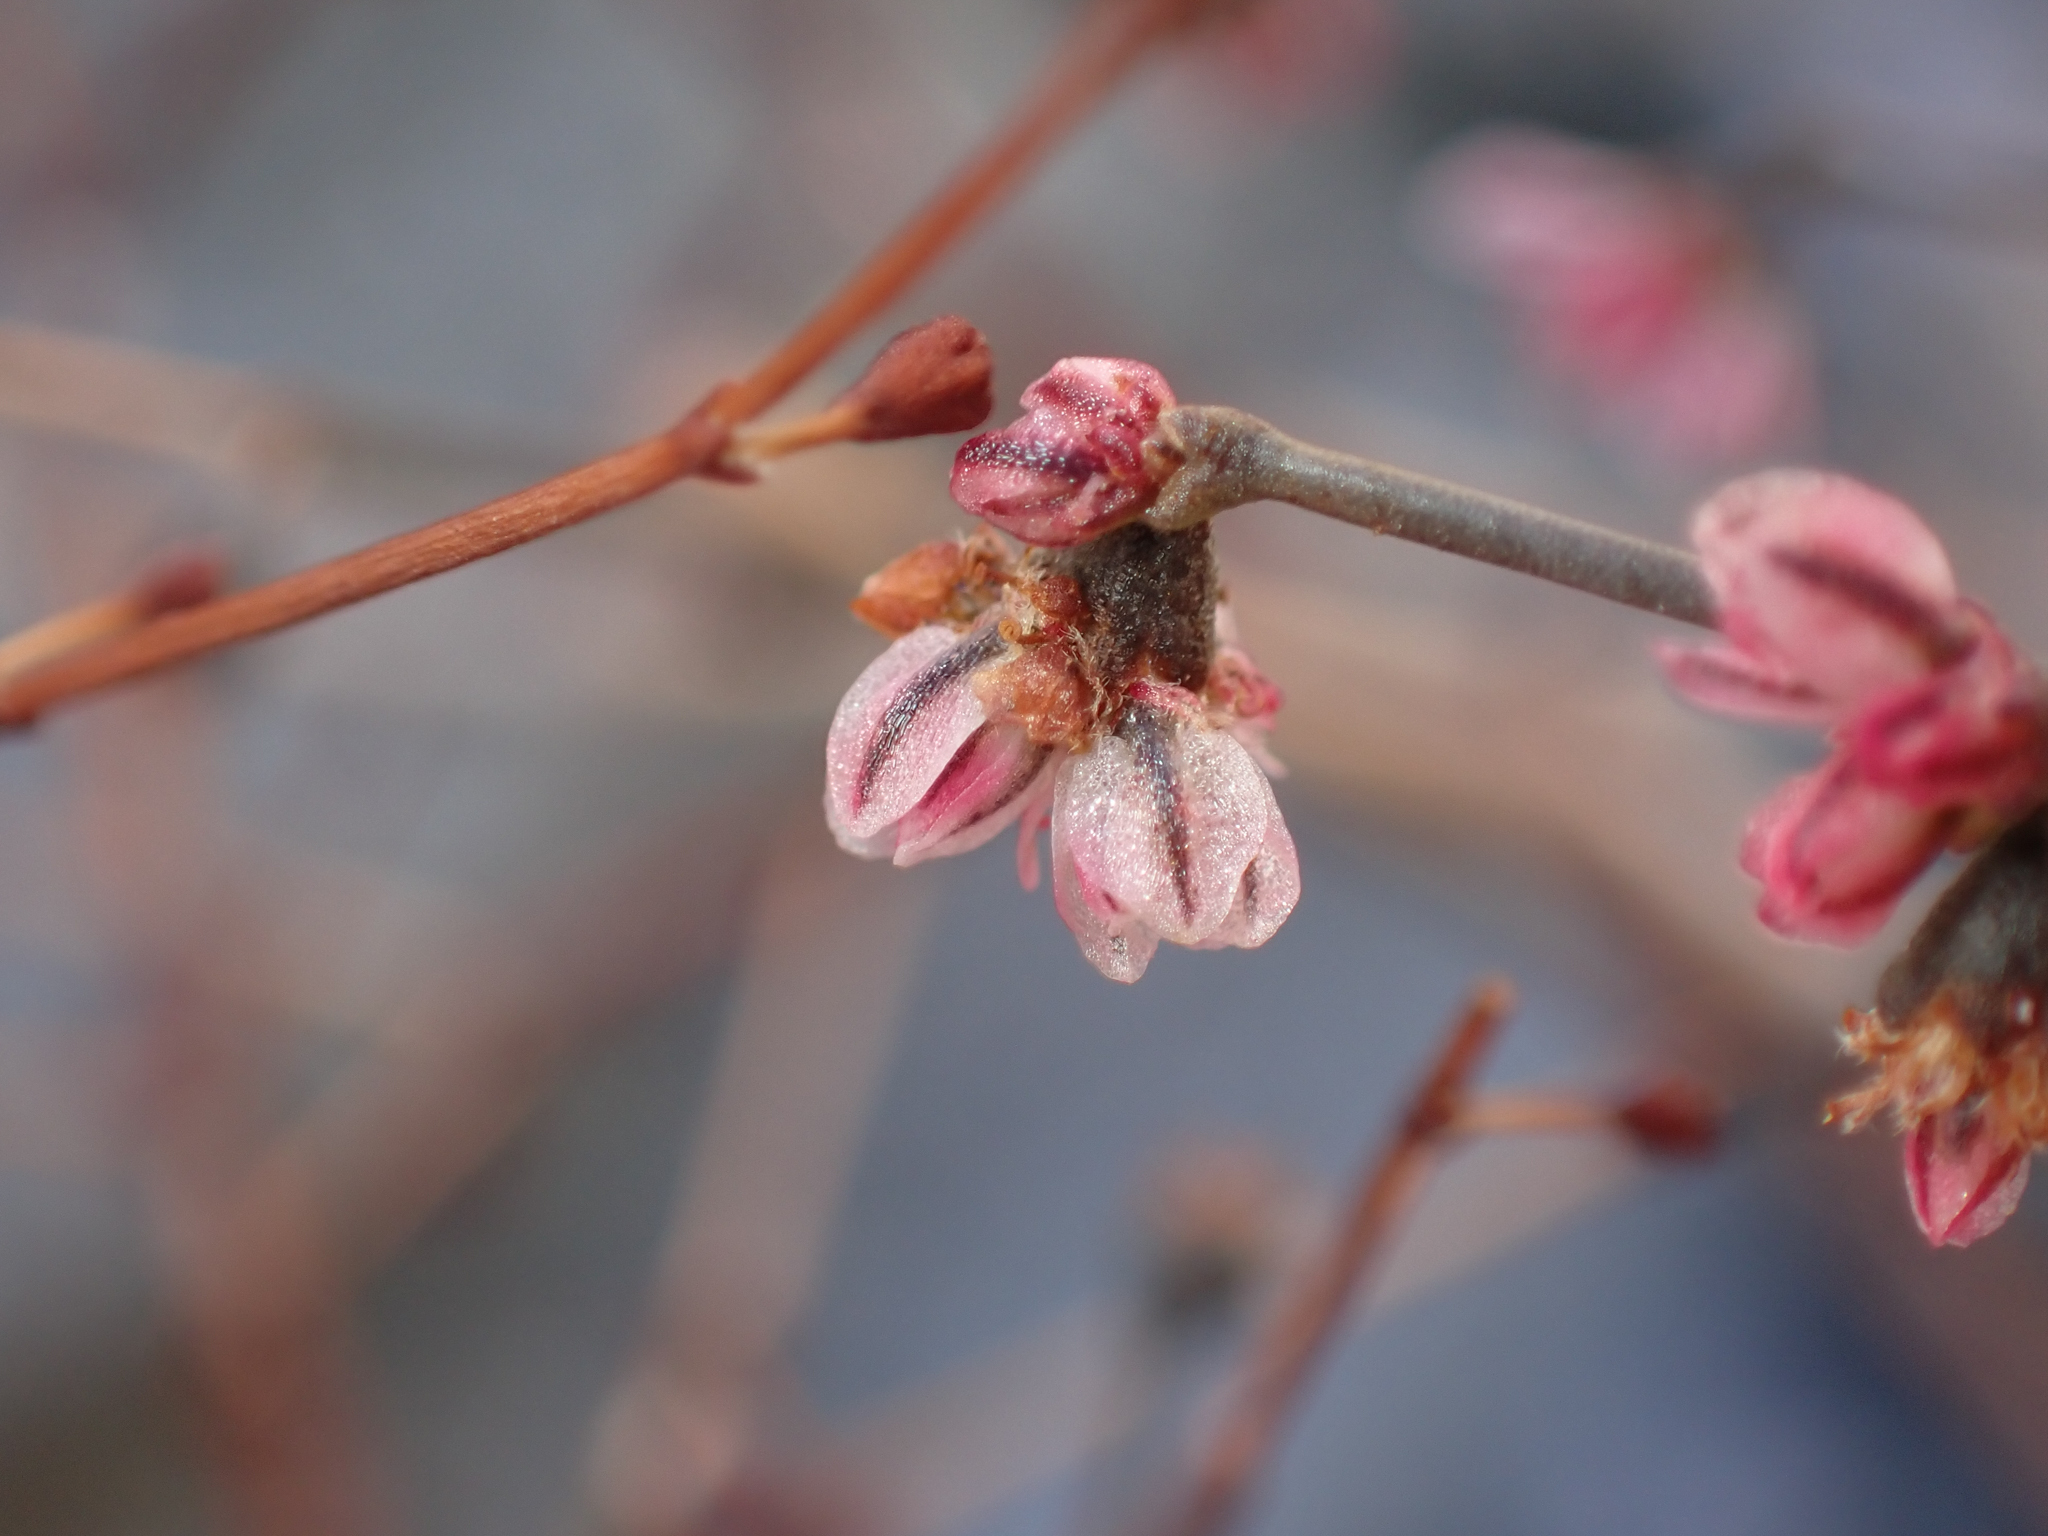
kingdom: Plantae
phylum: Tracheophyta
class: Magnoliopsida
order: Caryophyllales
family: Polygonaceae
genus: Eriogonum
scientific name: Eriogonum deflexum
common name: Skeleton-weed
